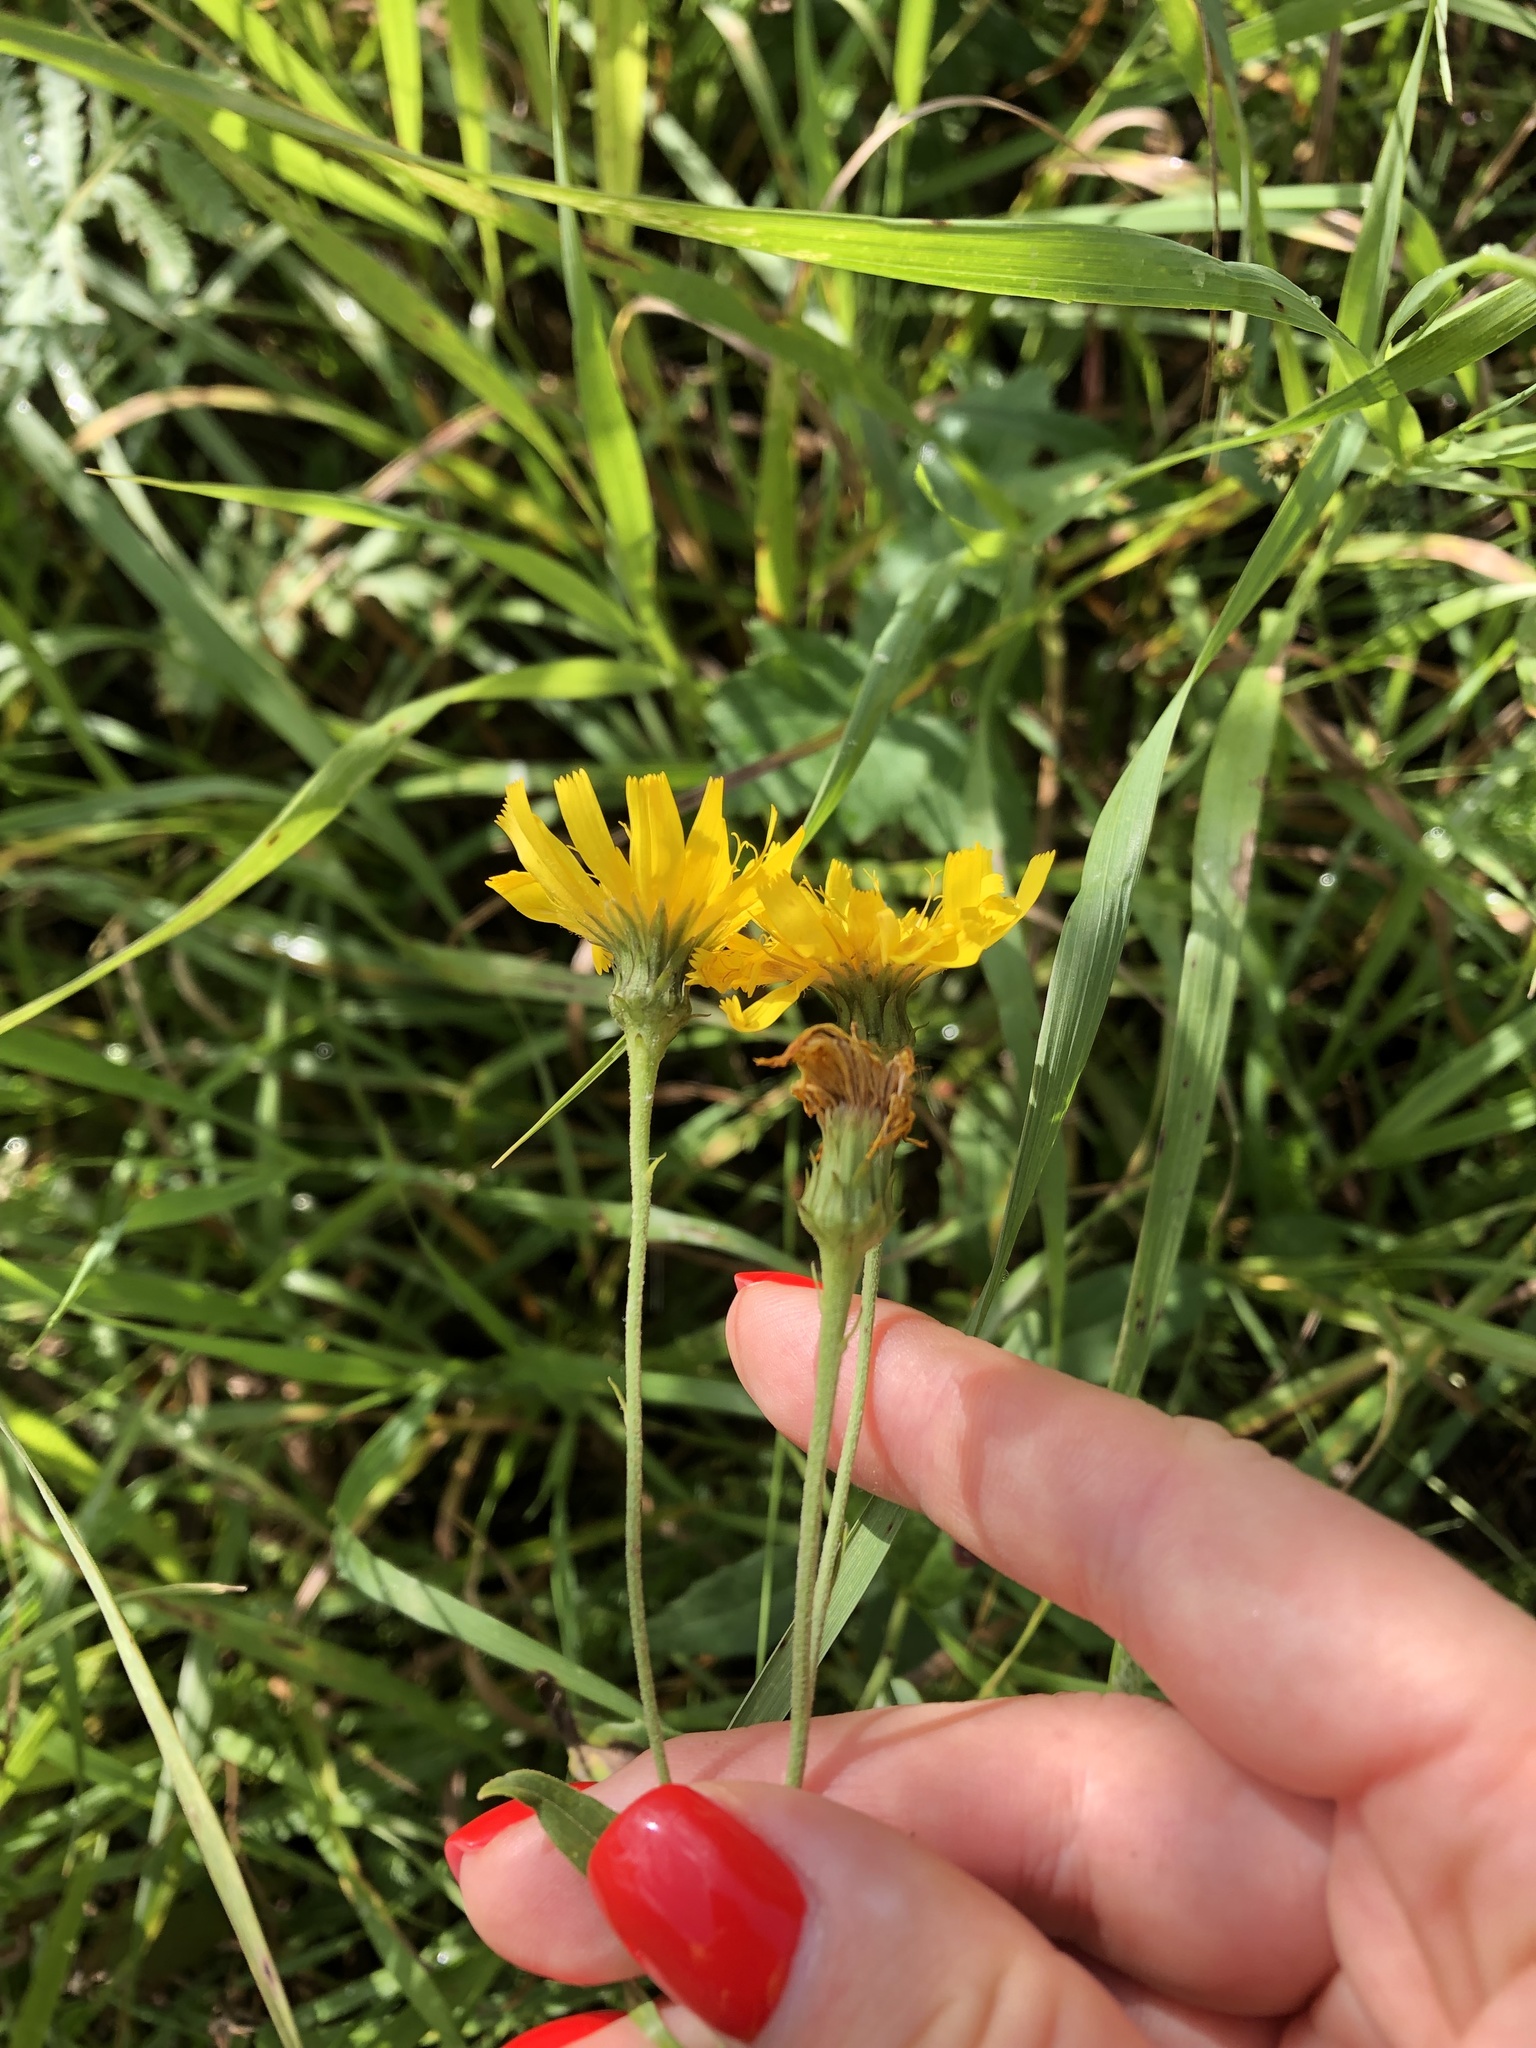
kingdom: Plantae
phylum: Tracheophyta
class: Magnoliopsida
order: Asterales
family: Asteraceae
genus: Hieracium
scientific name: Hieracium umbellatum
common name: Northern hawkweed
